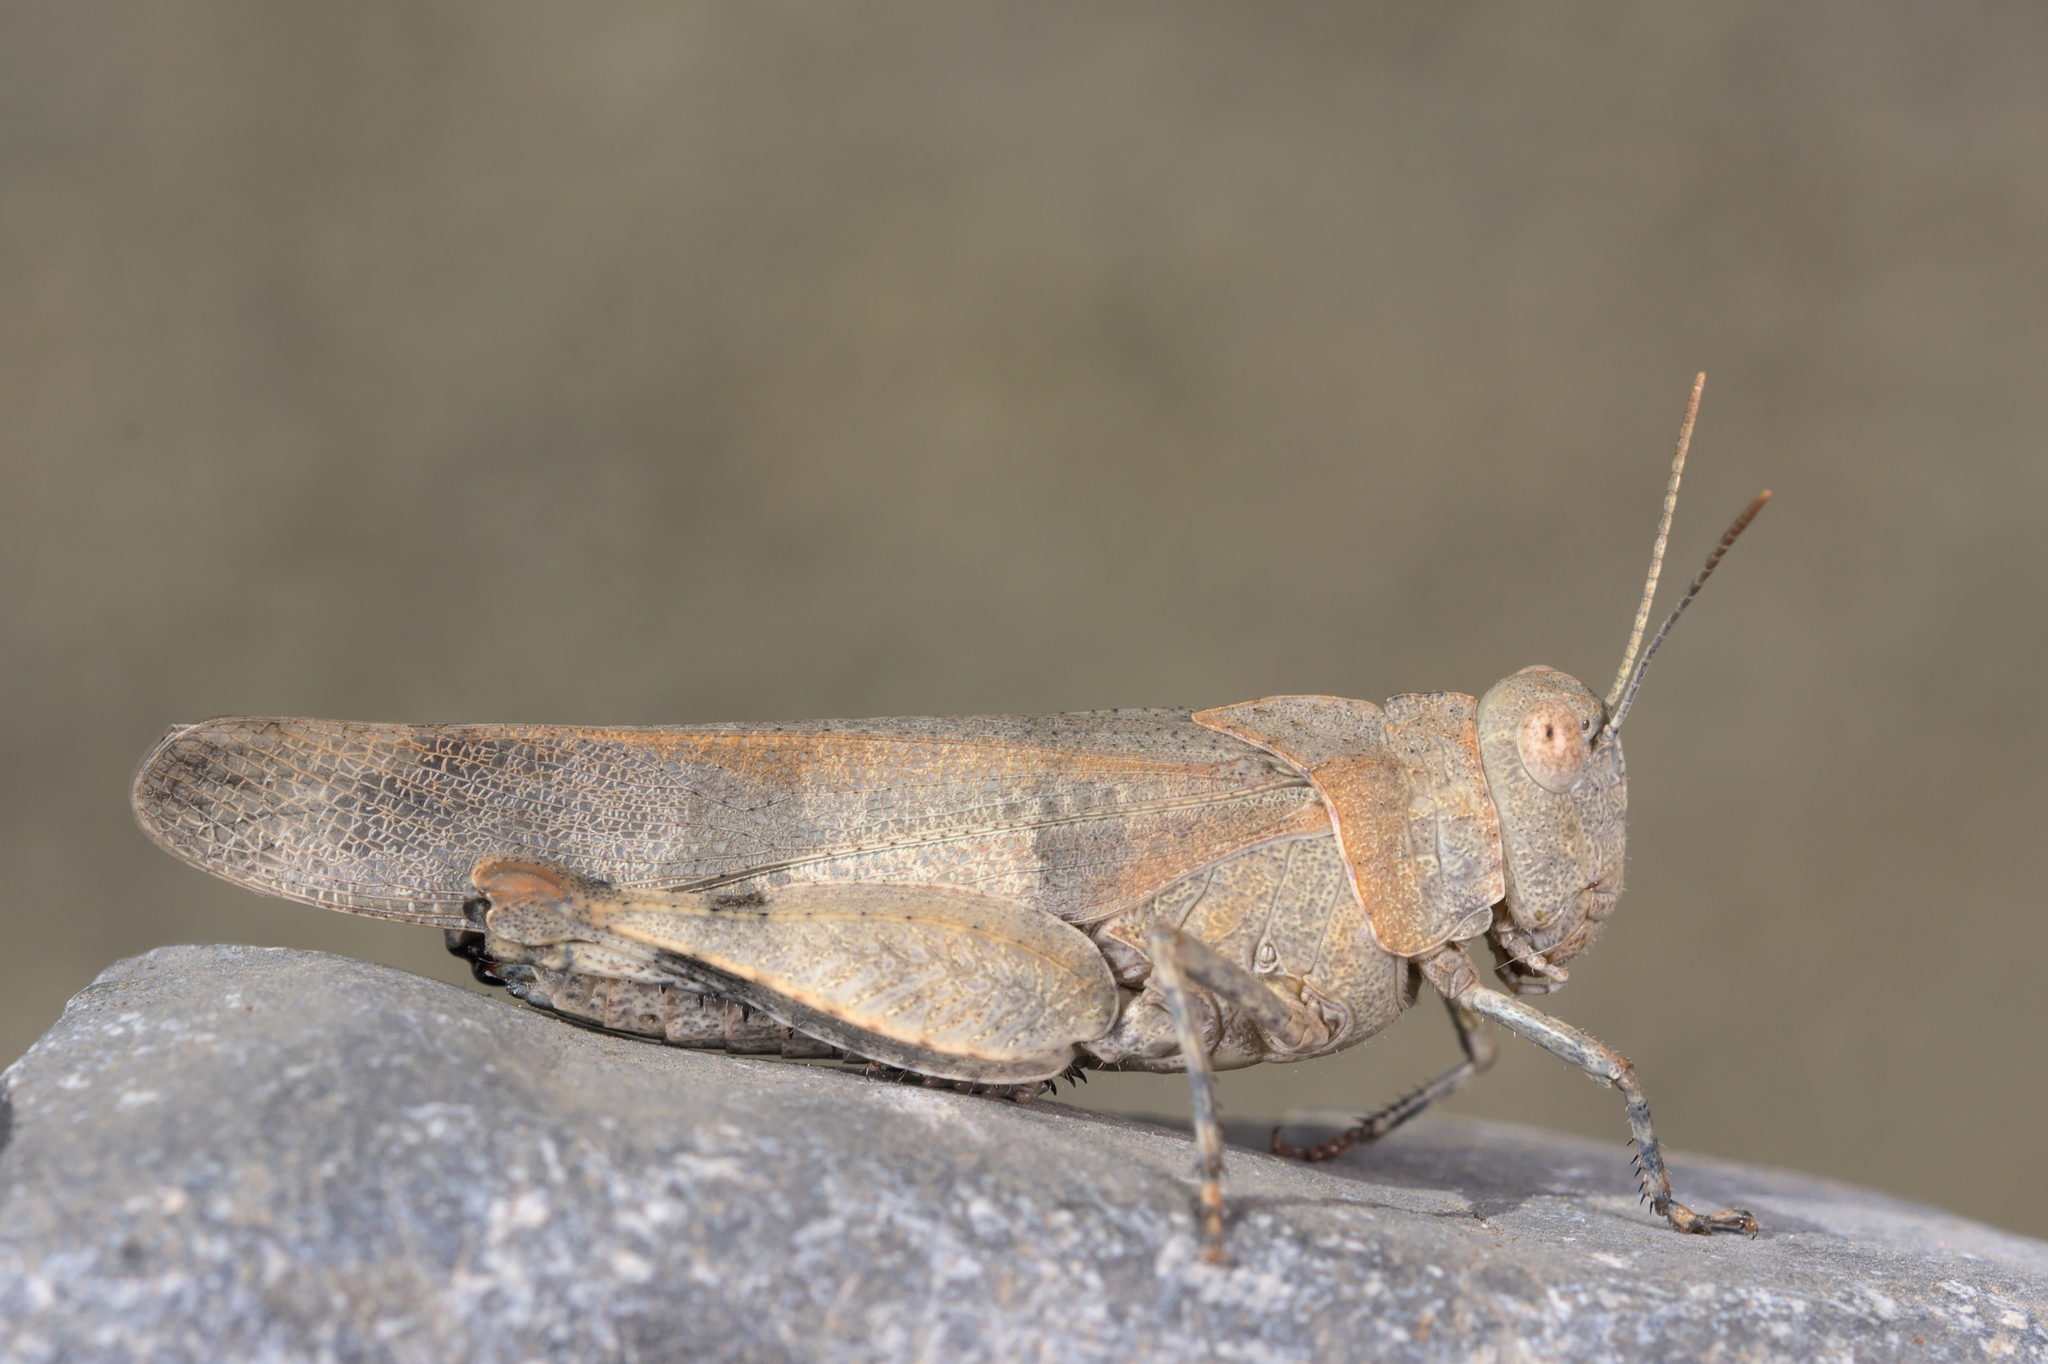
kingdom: Animalia
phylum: Arthropoda
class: Insecta
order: Orthoptera
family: Acrididae
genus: Oedipoda
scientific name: Oedipoda caerulescens
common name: Blue-winged grasshopper
